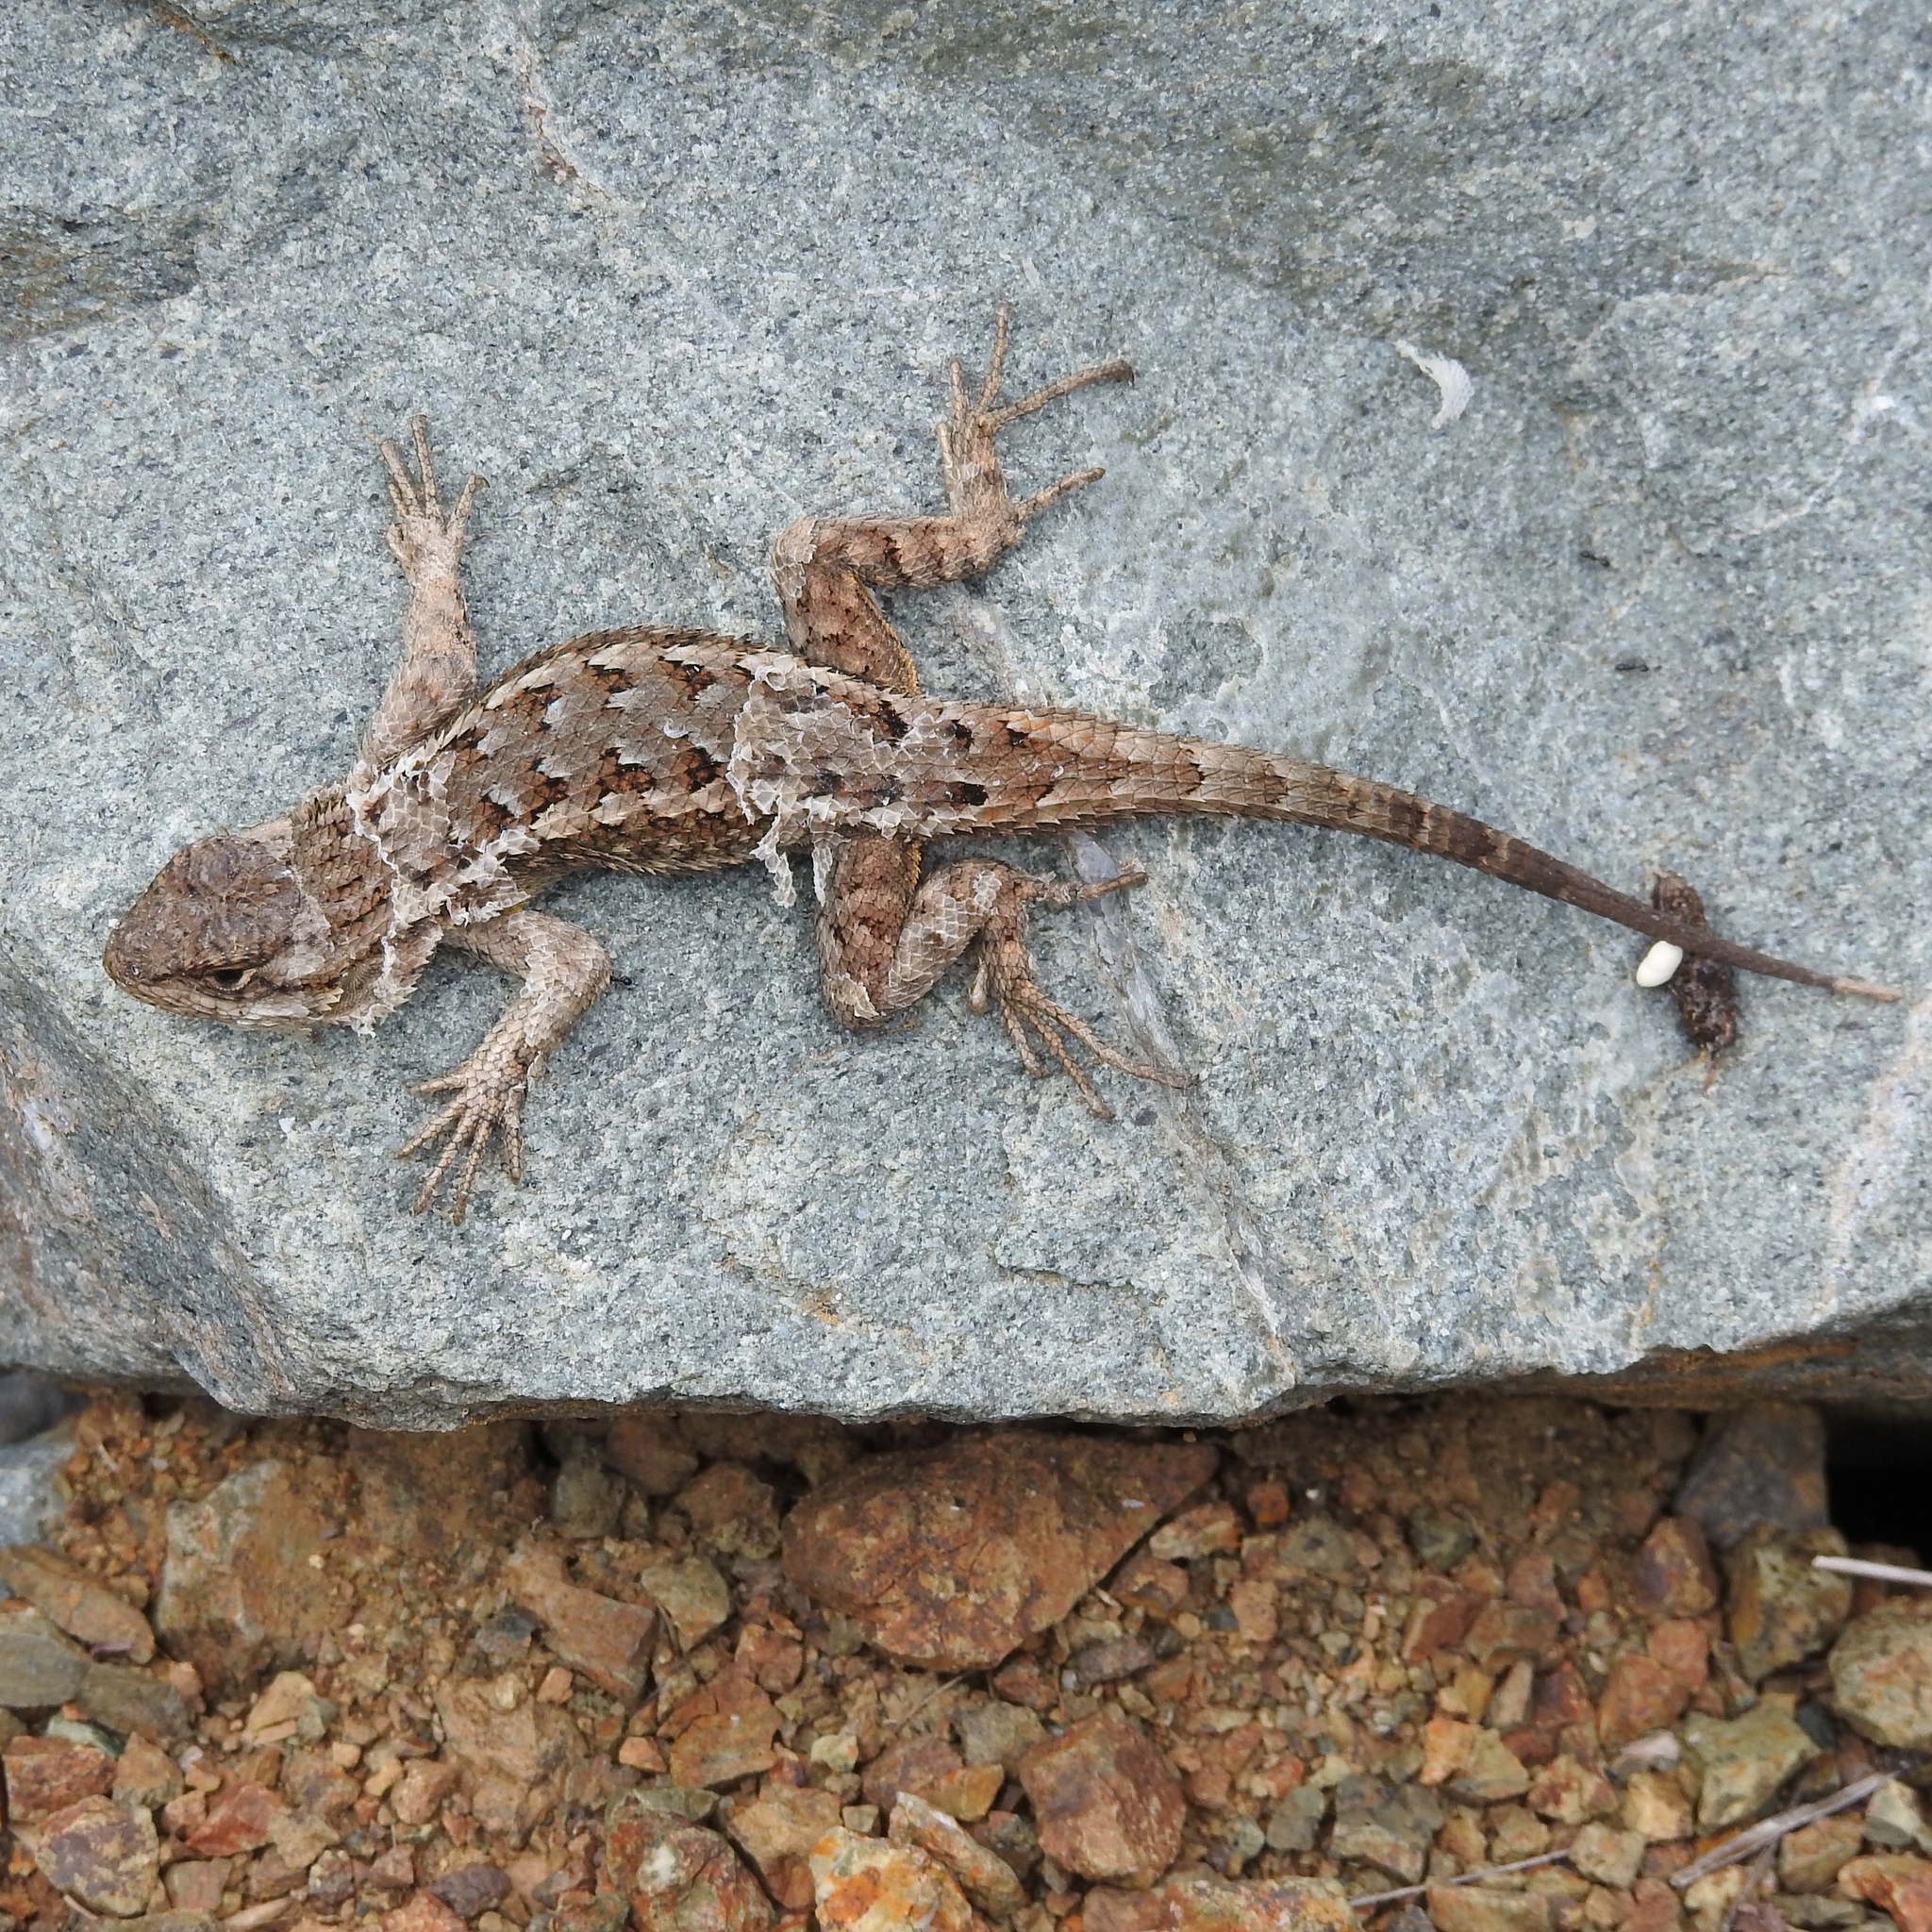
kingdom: Animalia
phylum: Chordata
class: Squamata
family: Phrynosomatidae
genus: Sceloporus
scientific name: Sceloporus occidentalis
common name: Western fence lizard
